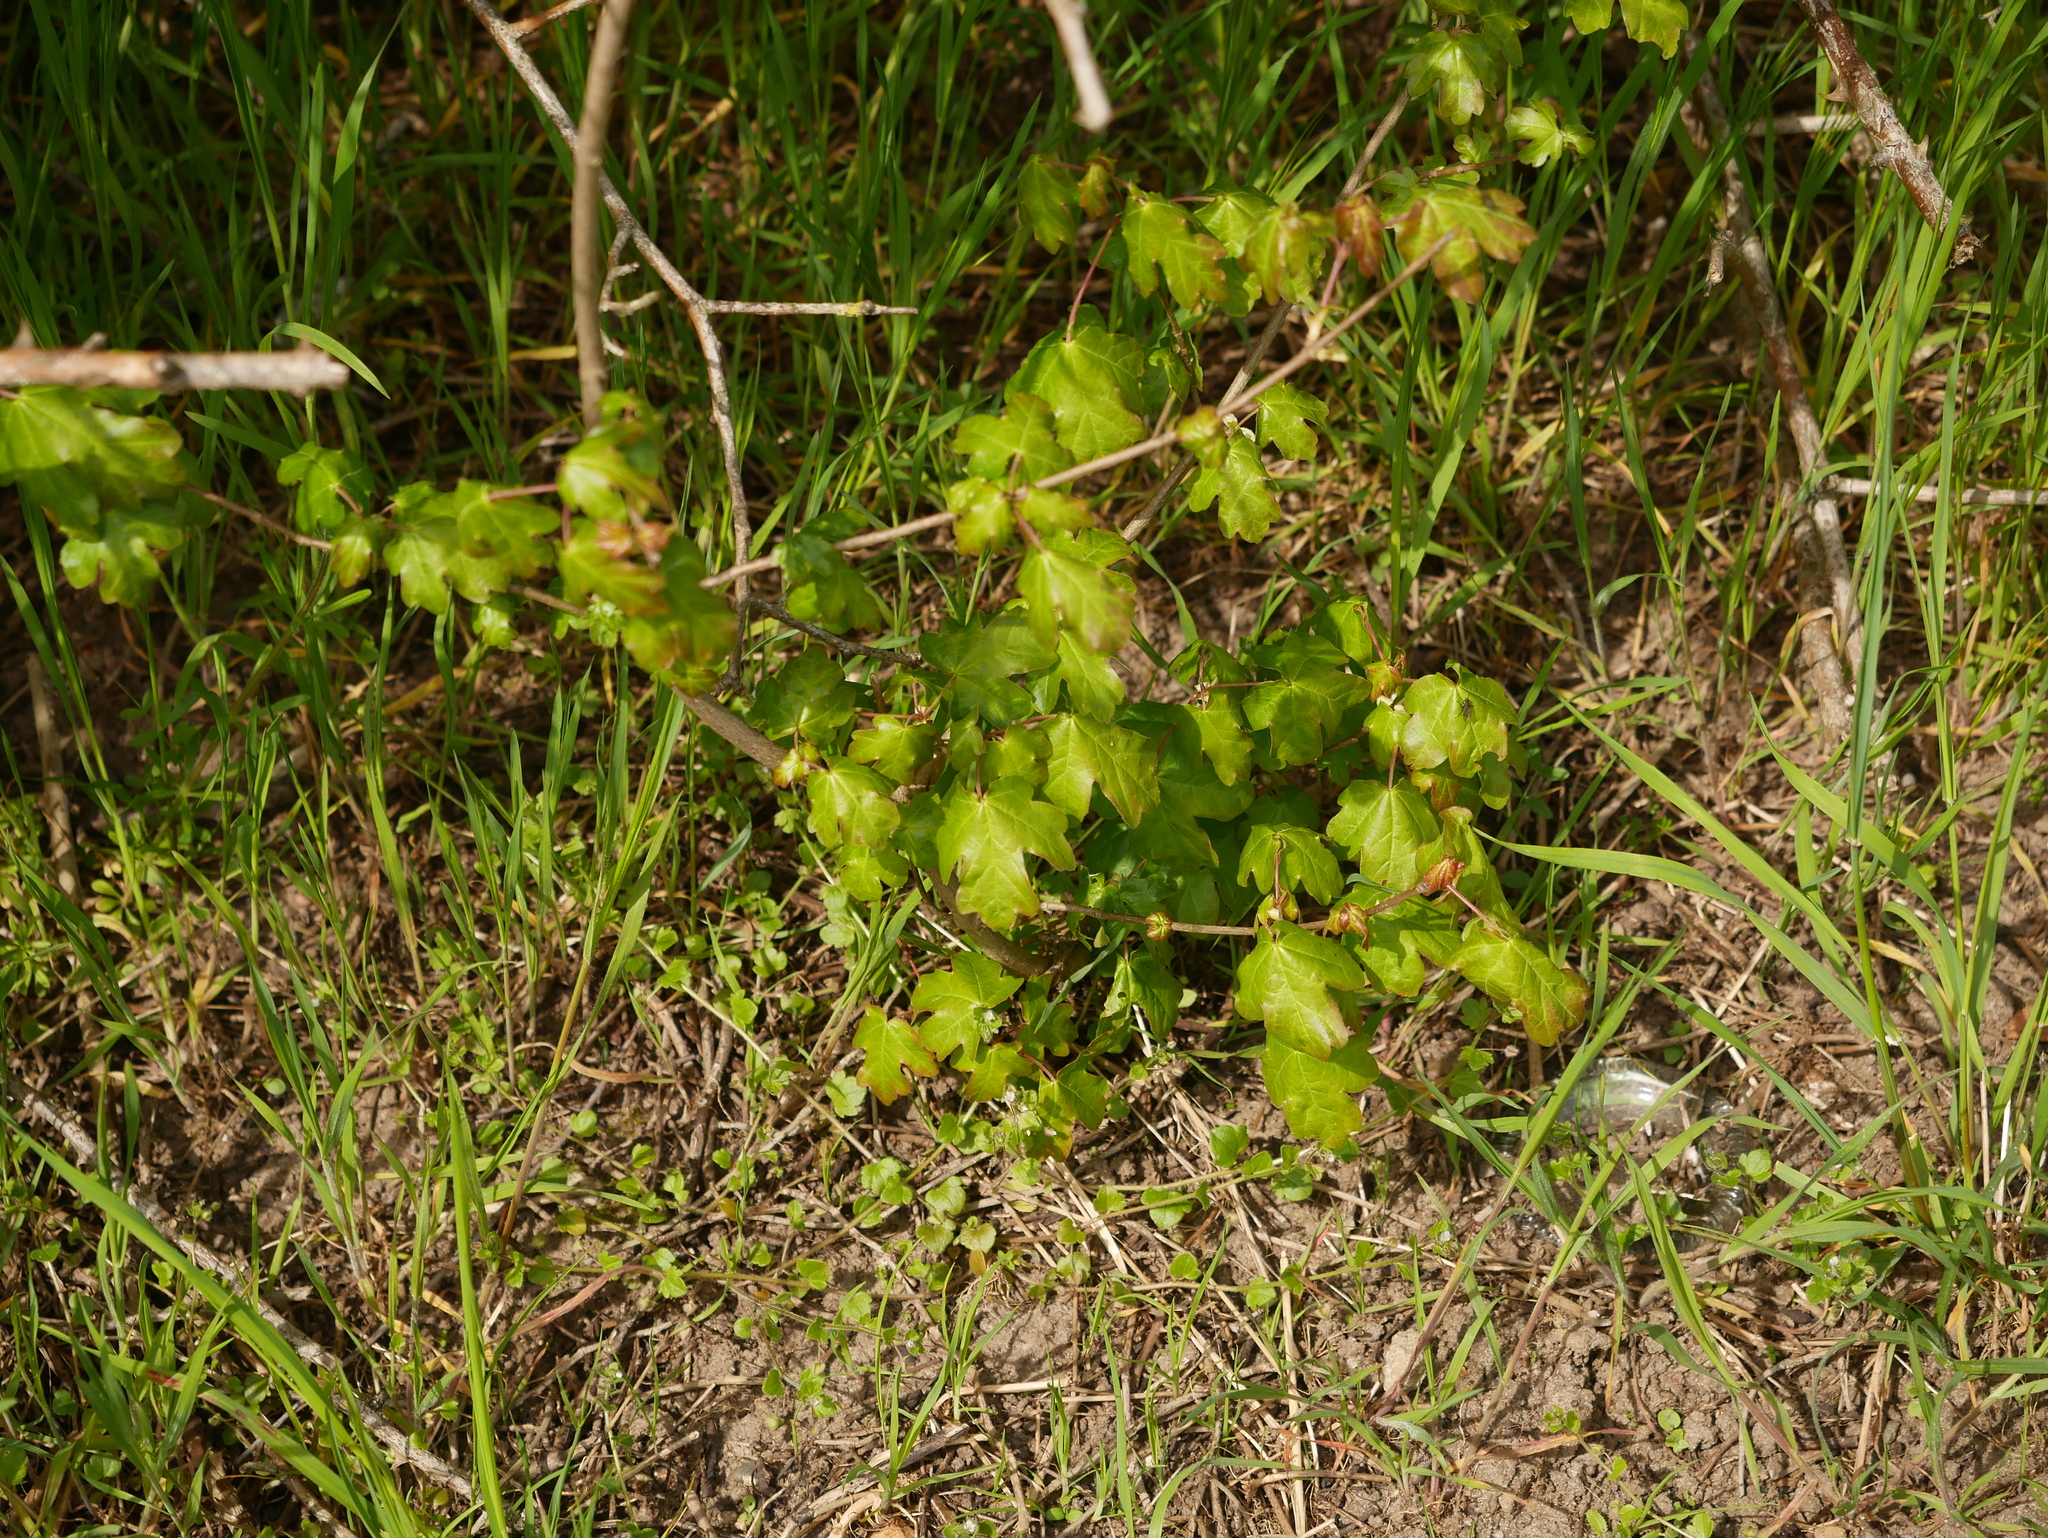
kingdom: Plantae
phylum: Tracheophyta
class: Magnoliopsida
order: Sapindales
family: Sapindaceae
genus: Acer
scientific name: Acer campestre
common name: Field maple
